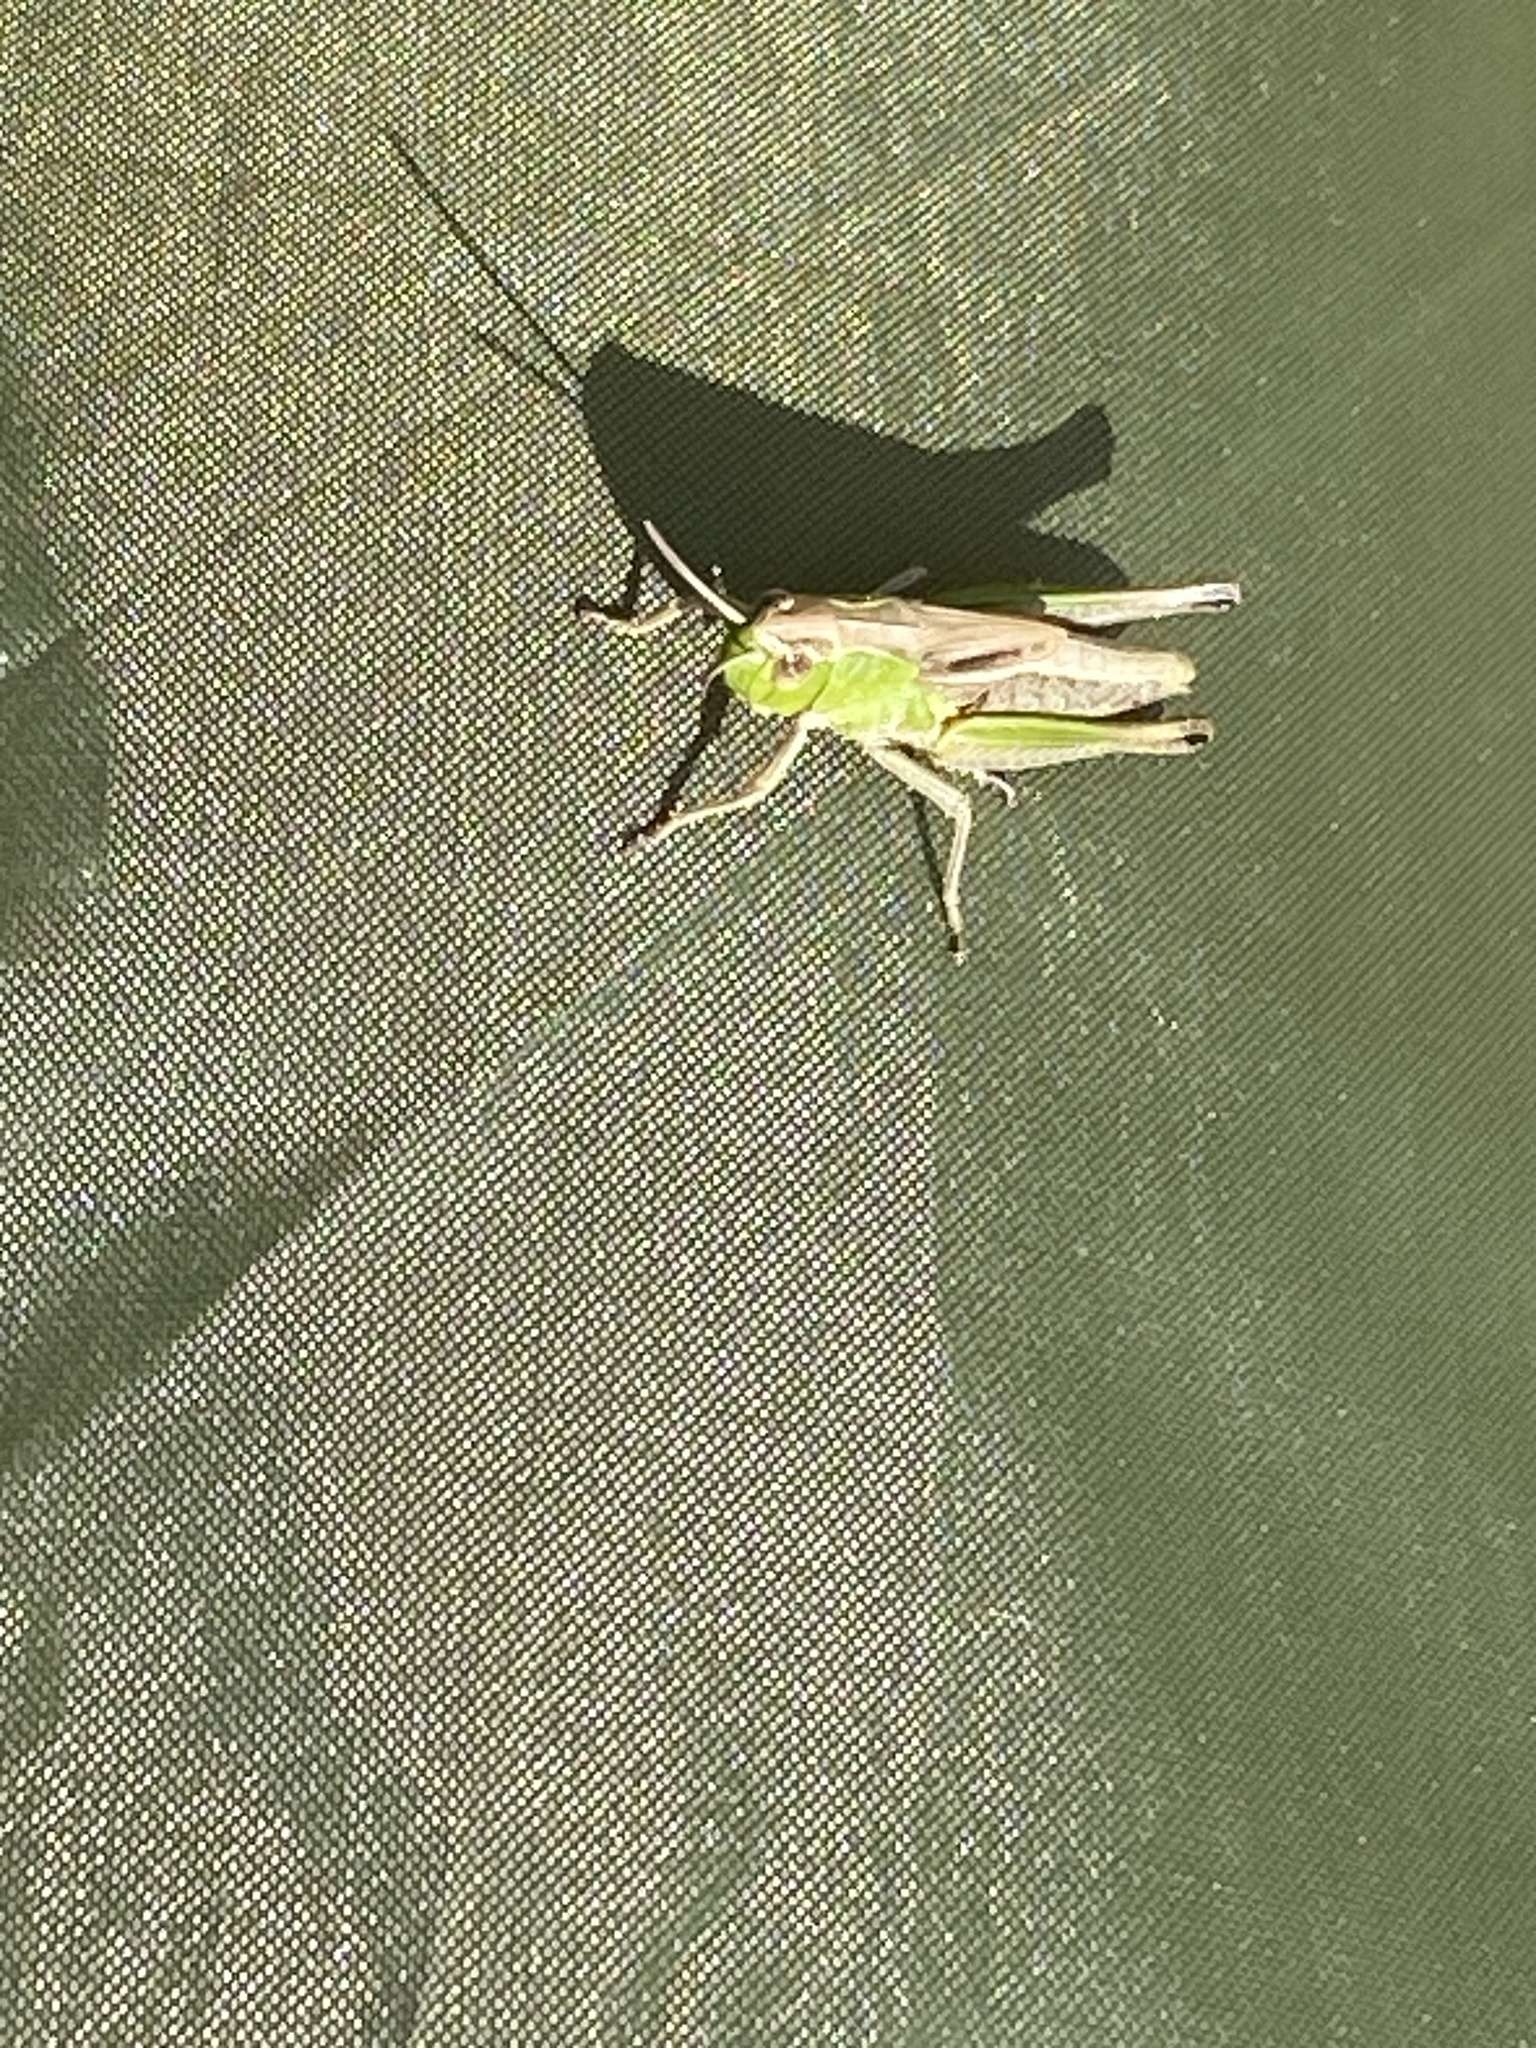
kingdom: Animalia
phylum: Arthropoda
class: Insecta
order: Orthoptera
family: Acrididae
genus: Pseudochorthippus
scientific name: Pseudochorthippus parallelus
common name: Meadow grasshopper
